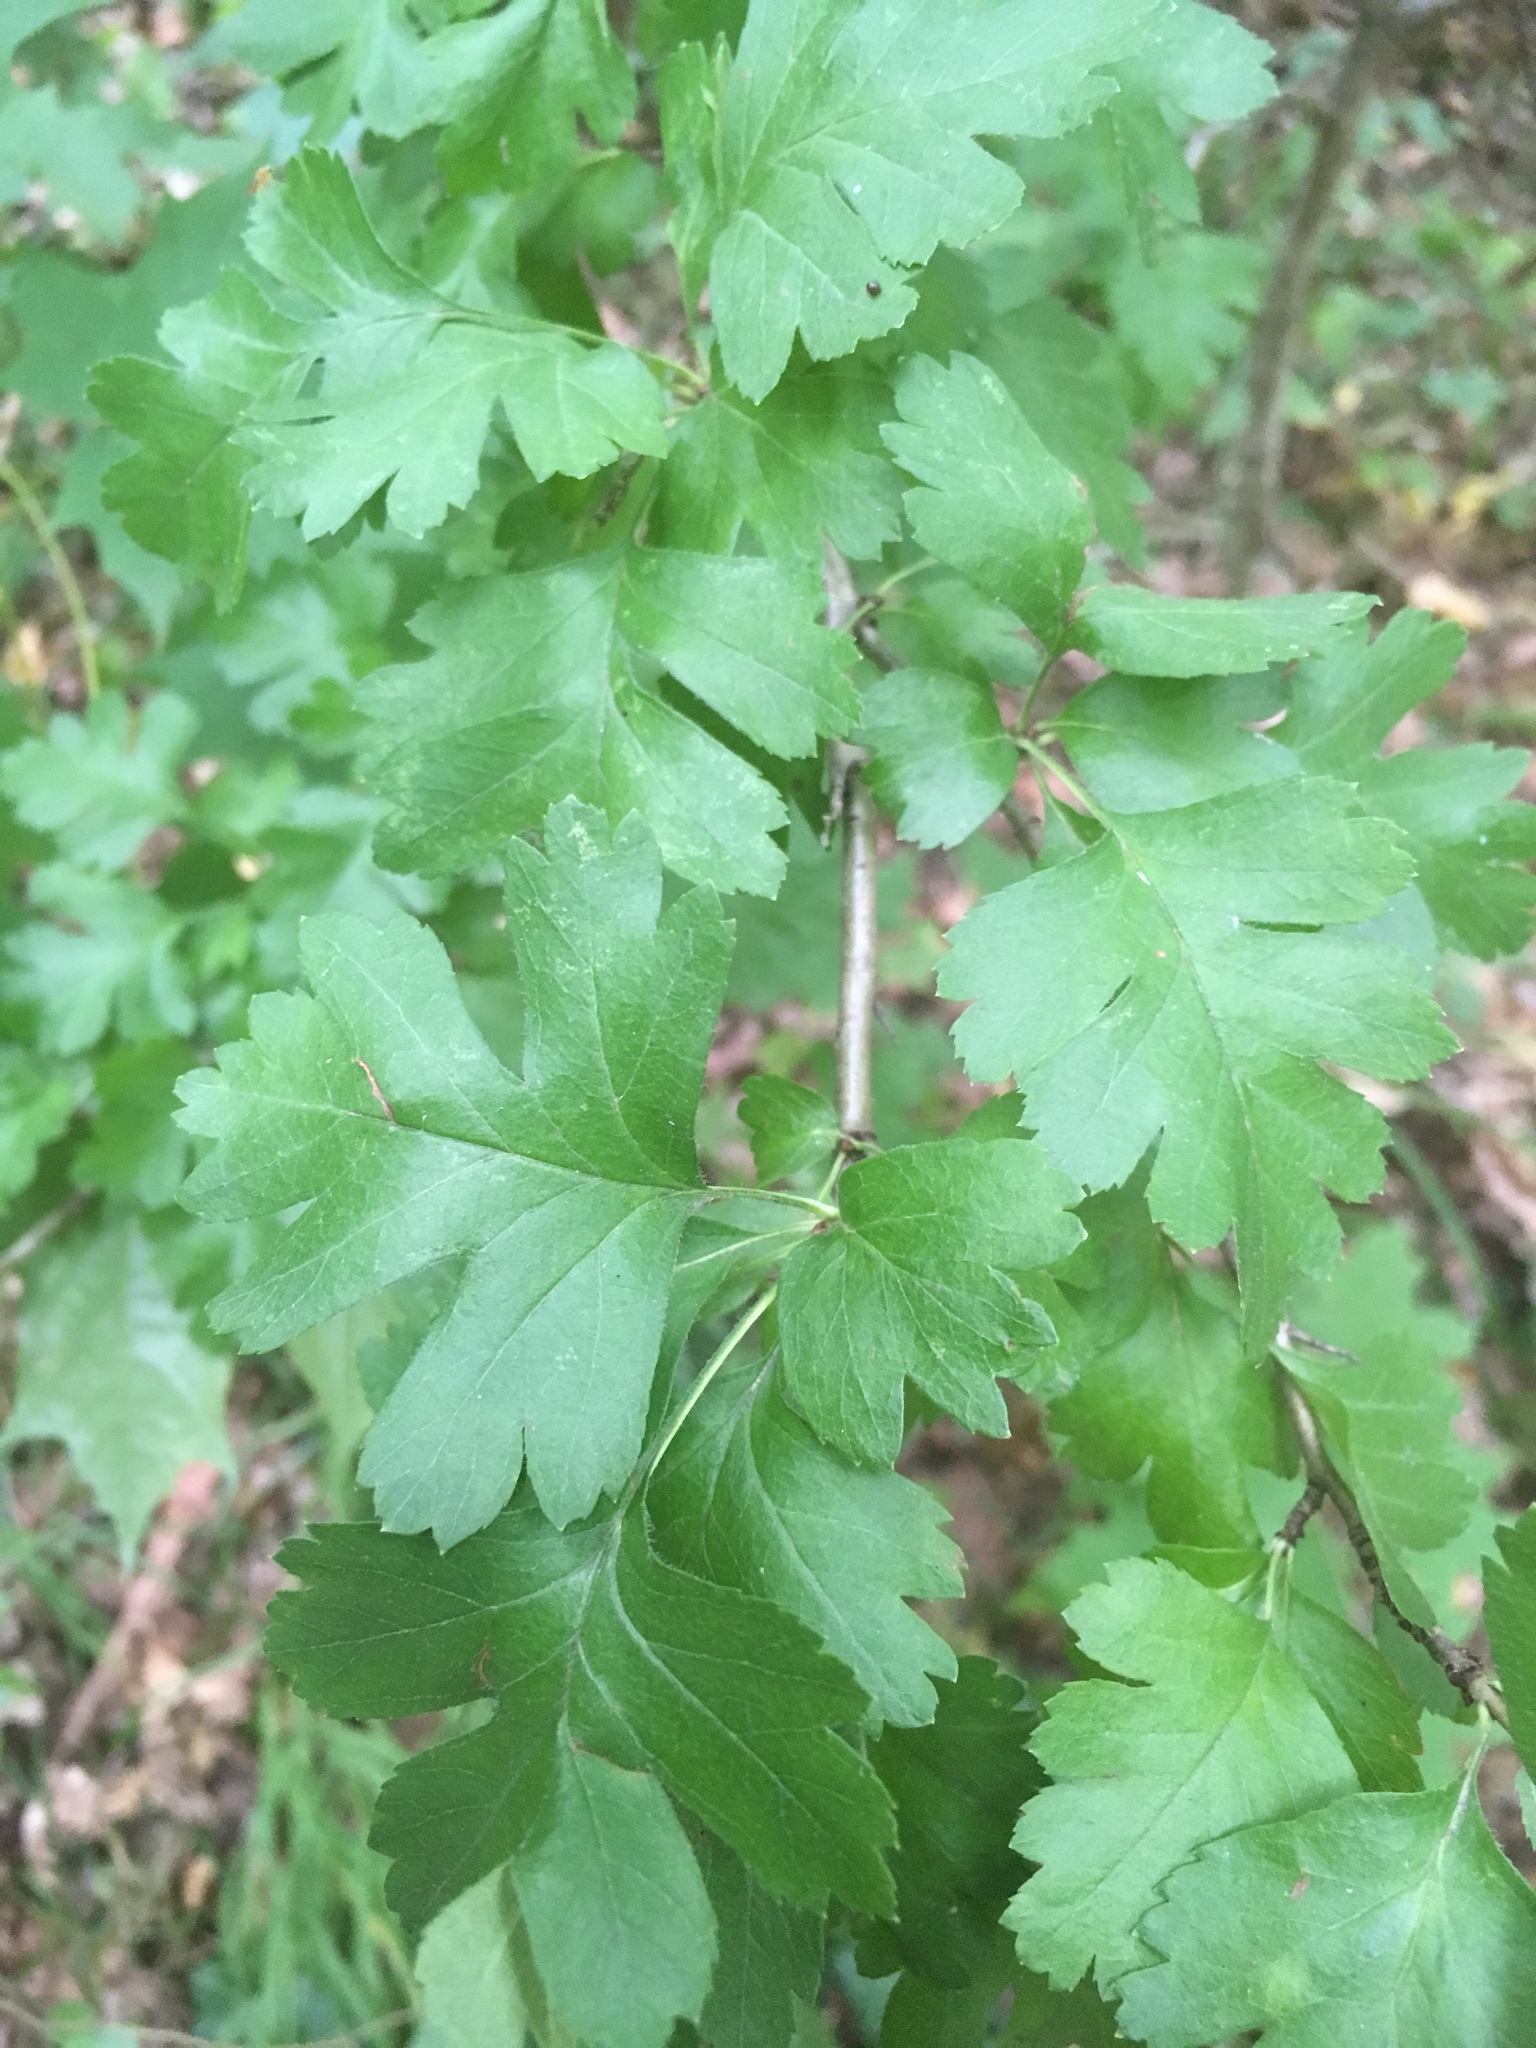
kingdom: Plantae
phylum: Tracheophyta
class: Magnoliopsida
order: Rosales
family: Rosaceae
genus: Crataegus
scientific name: Crataegus monogyna
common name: Hawthorn
